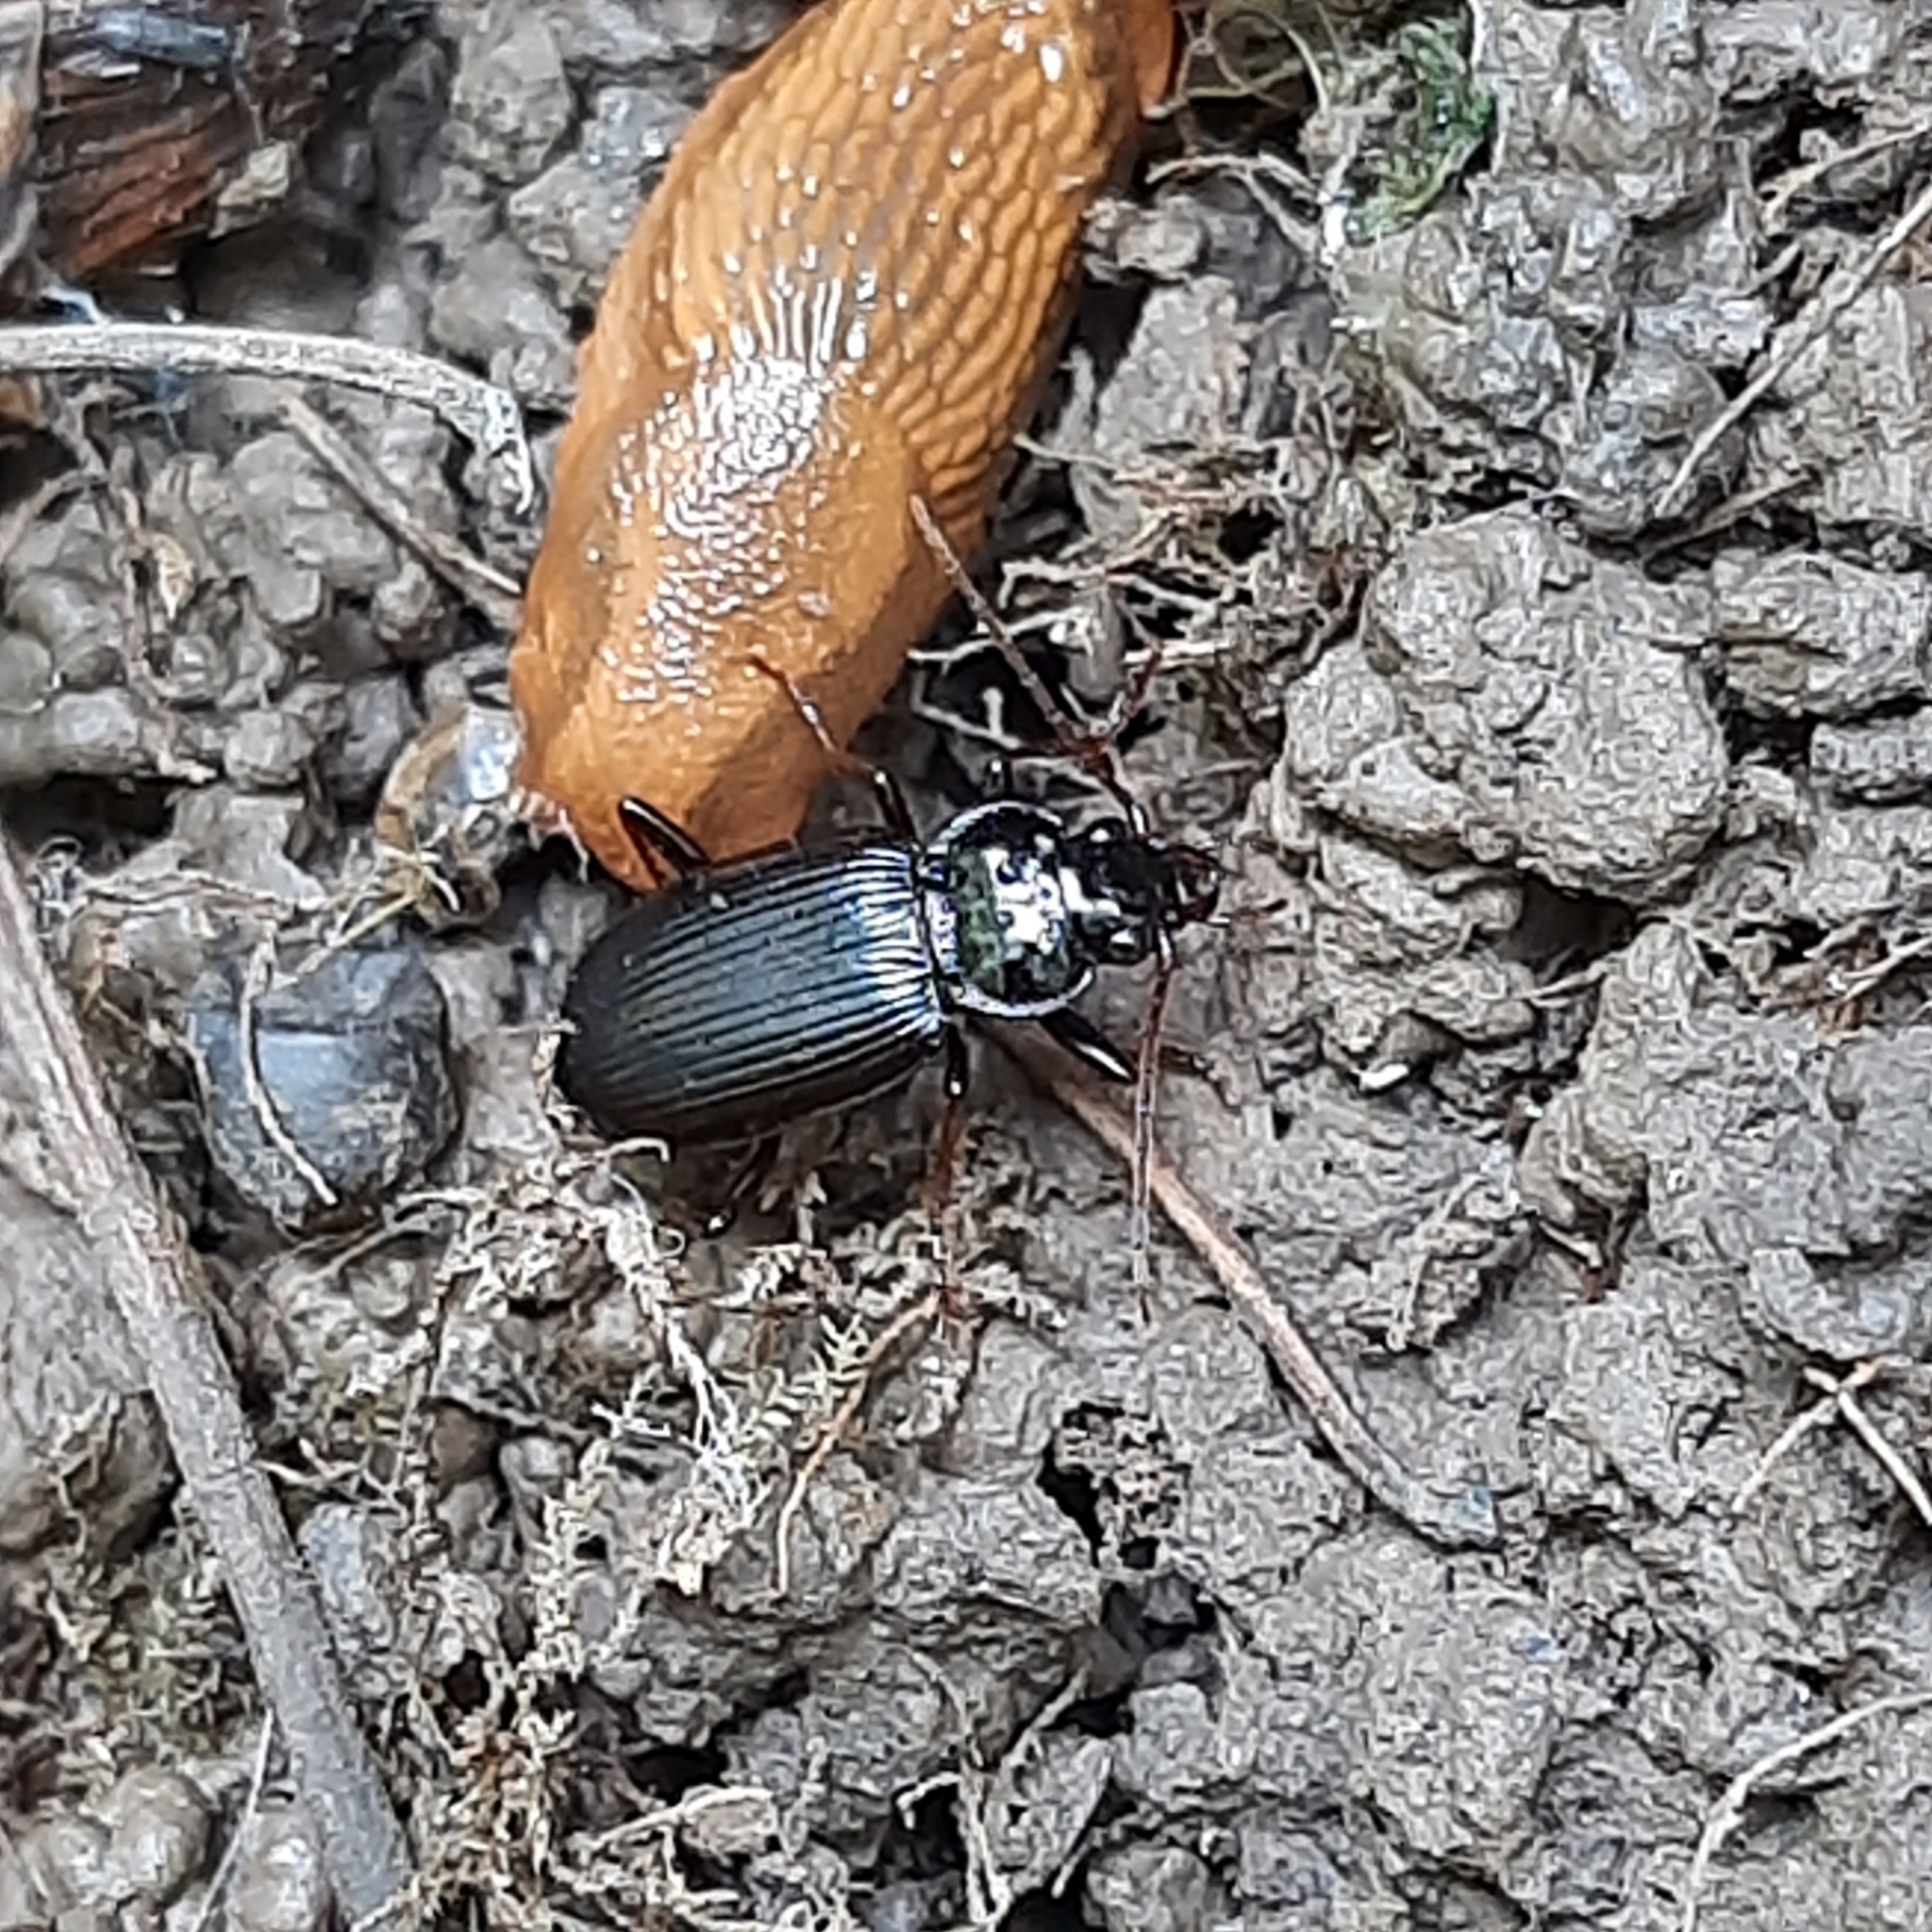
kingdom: Animalia
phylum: Arthropoda
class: Insecta
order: Coleoptera
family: Carabidae
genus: Nebria
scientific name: Nebria
